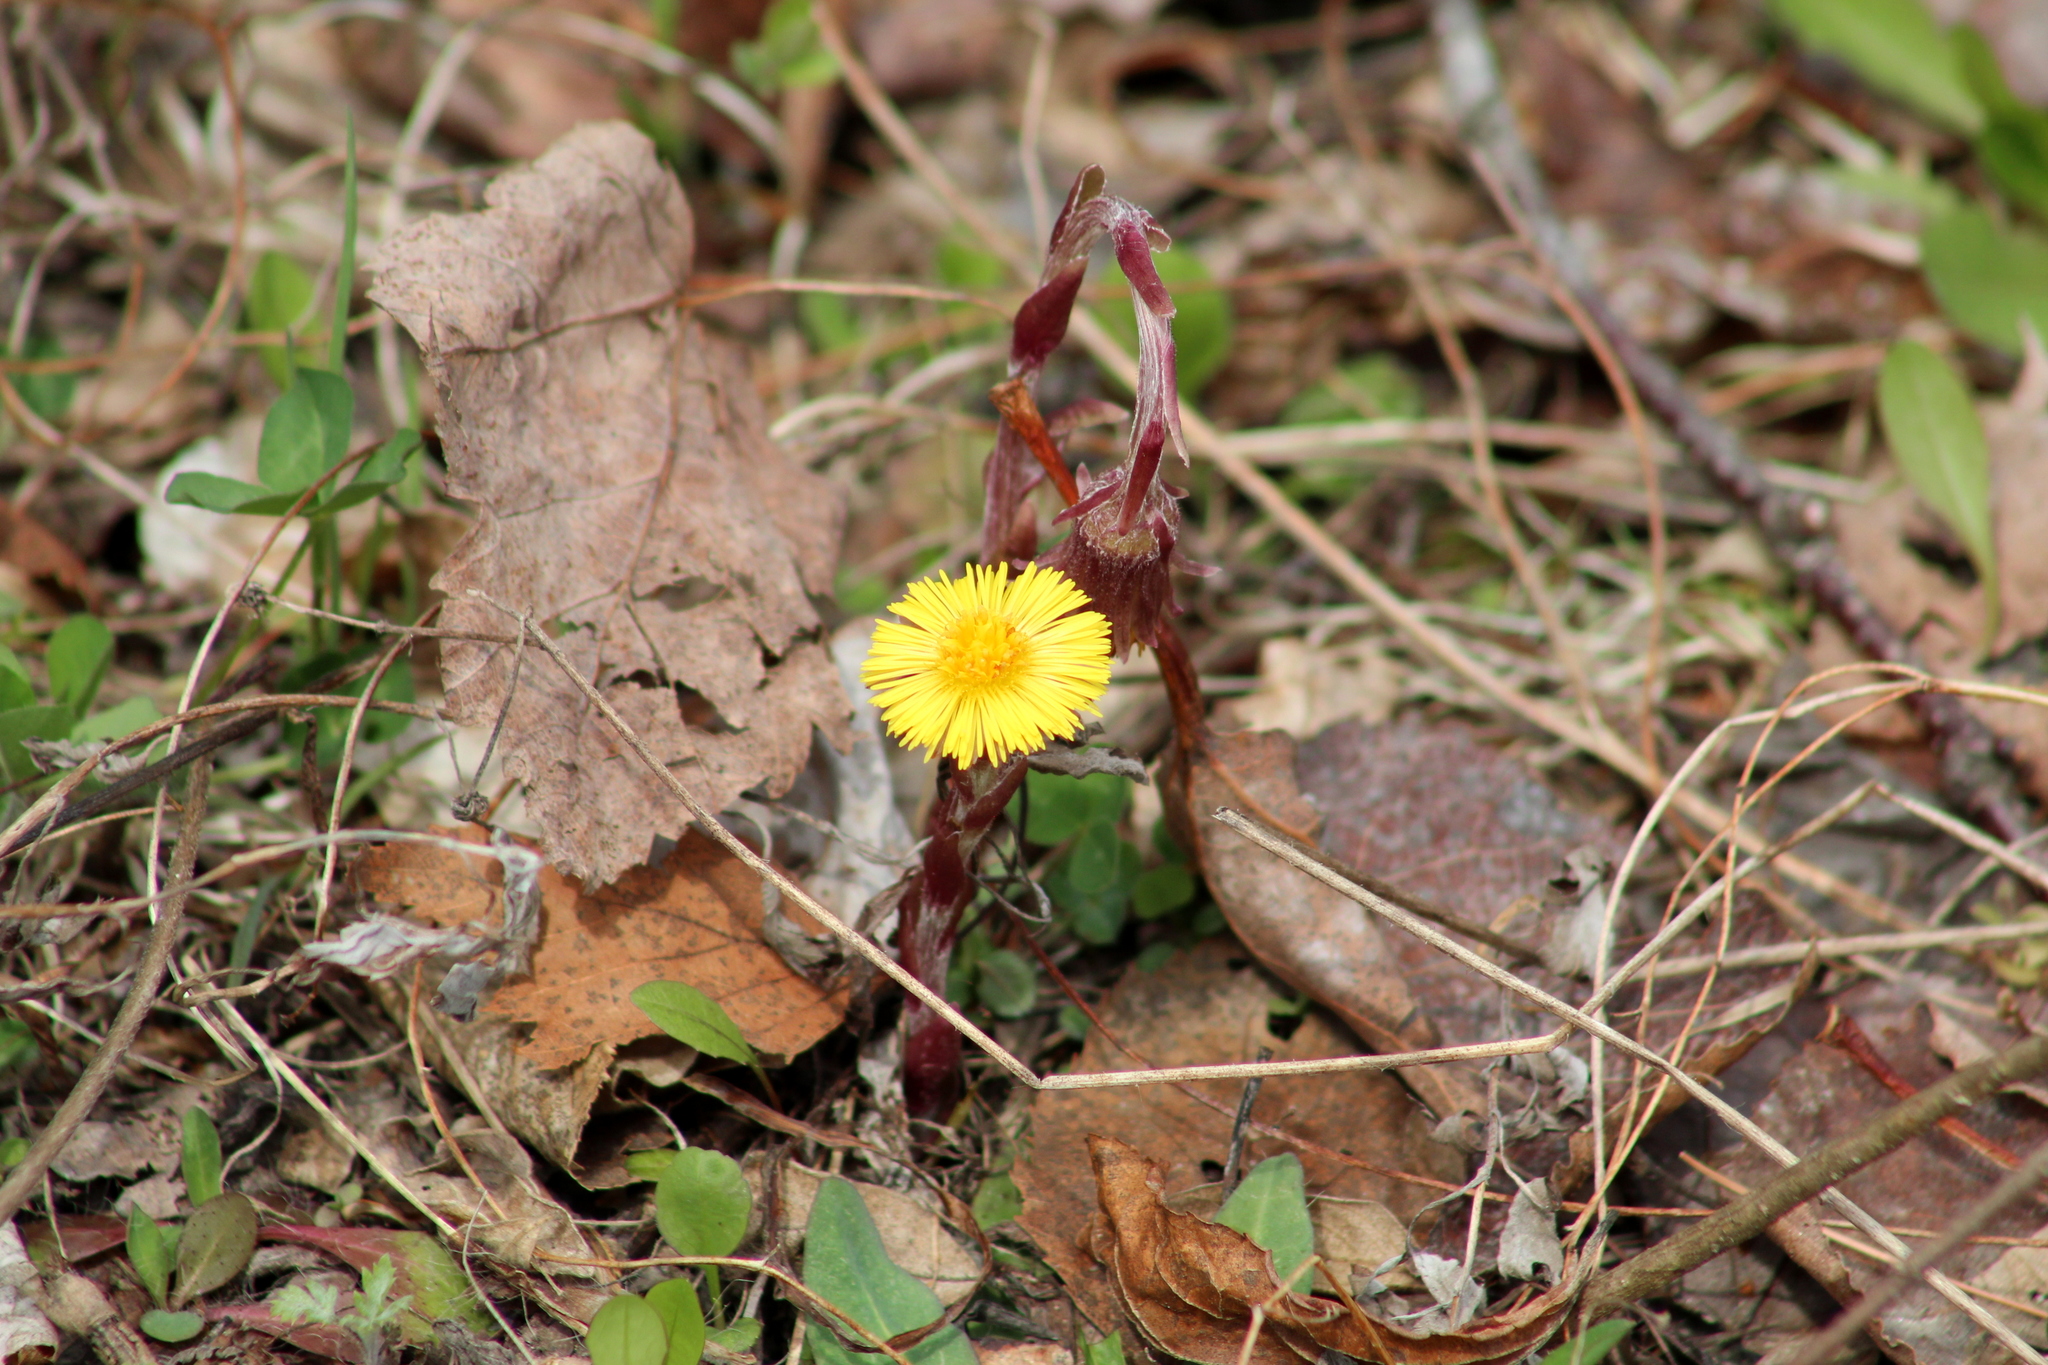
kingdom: Plantae
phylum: Tracheophyta
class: Magnoliopsida
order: Asterales
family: Asteraceae
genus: Tussilago
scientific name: Tussilago farfara
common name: Coltsfoot
